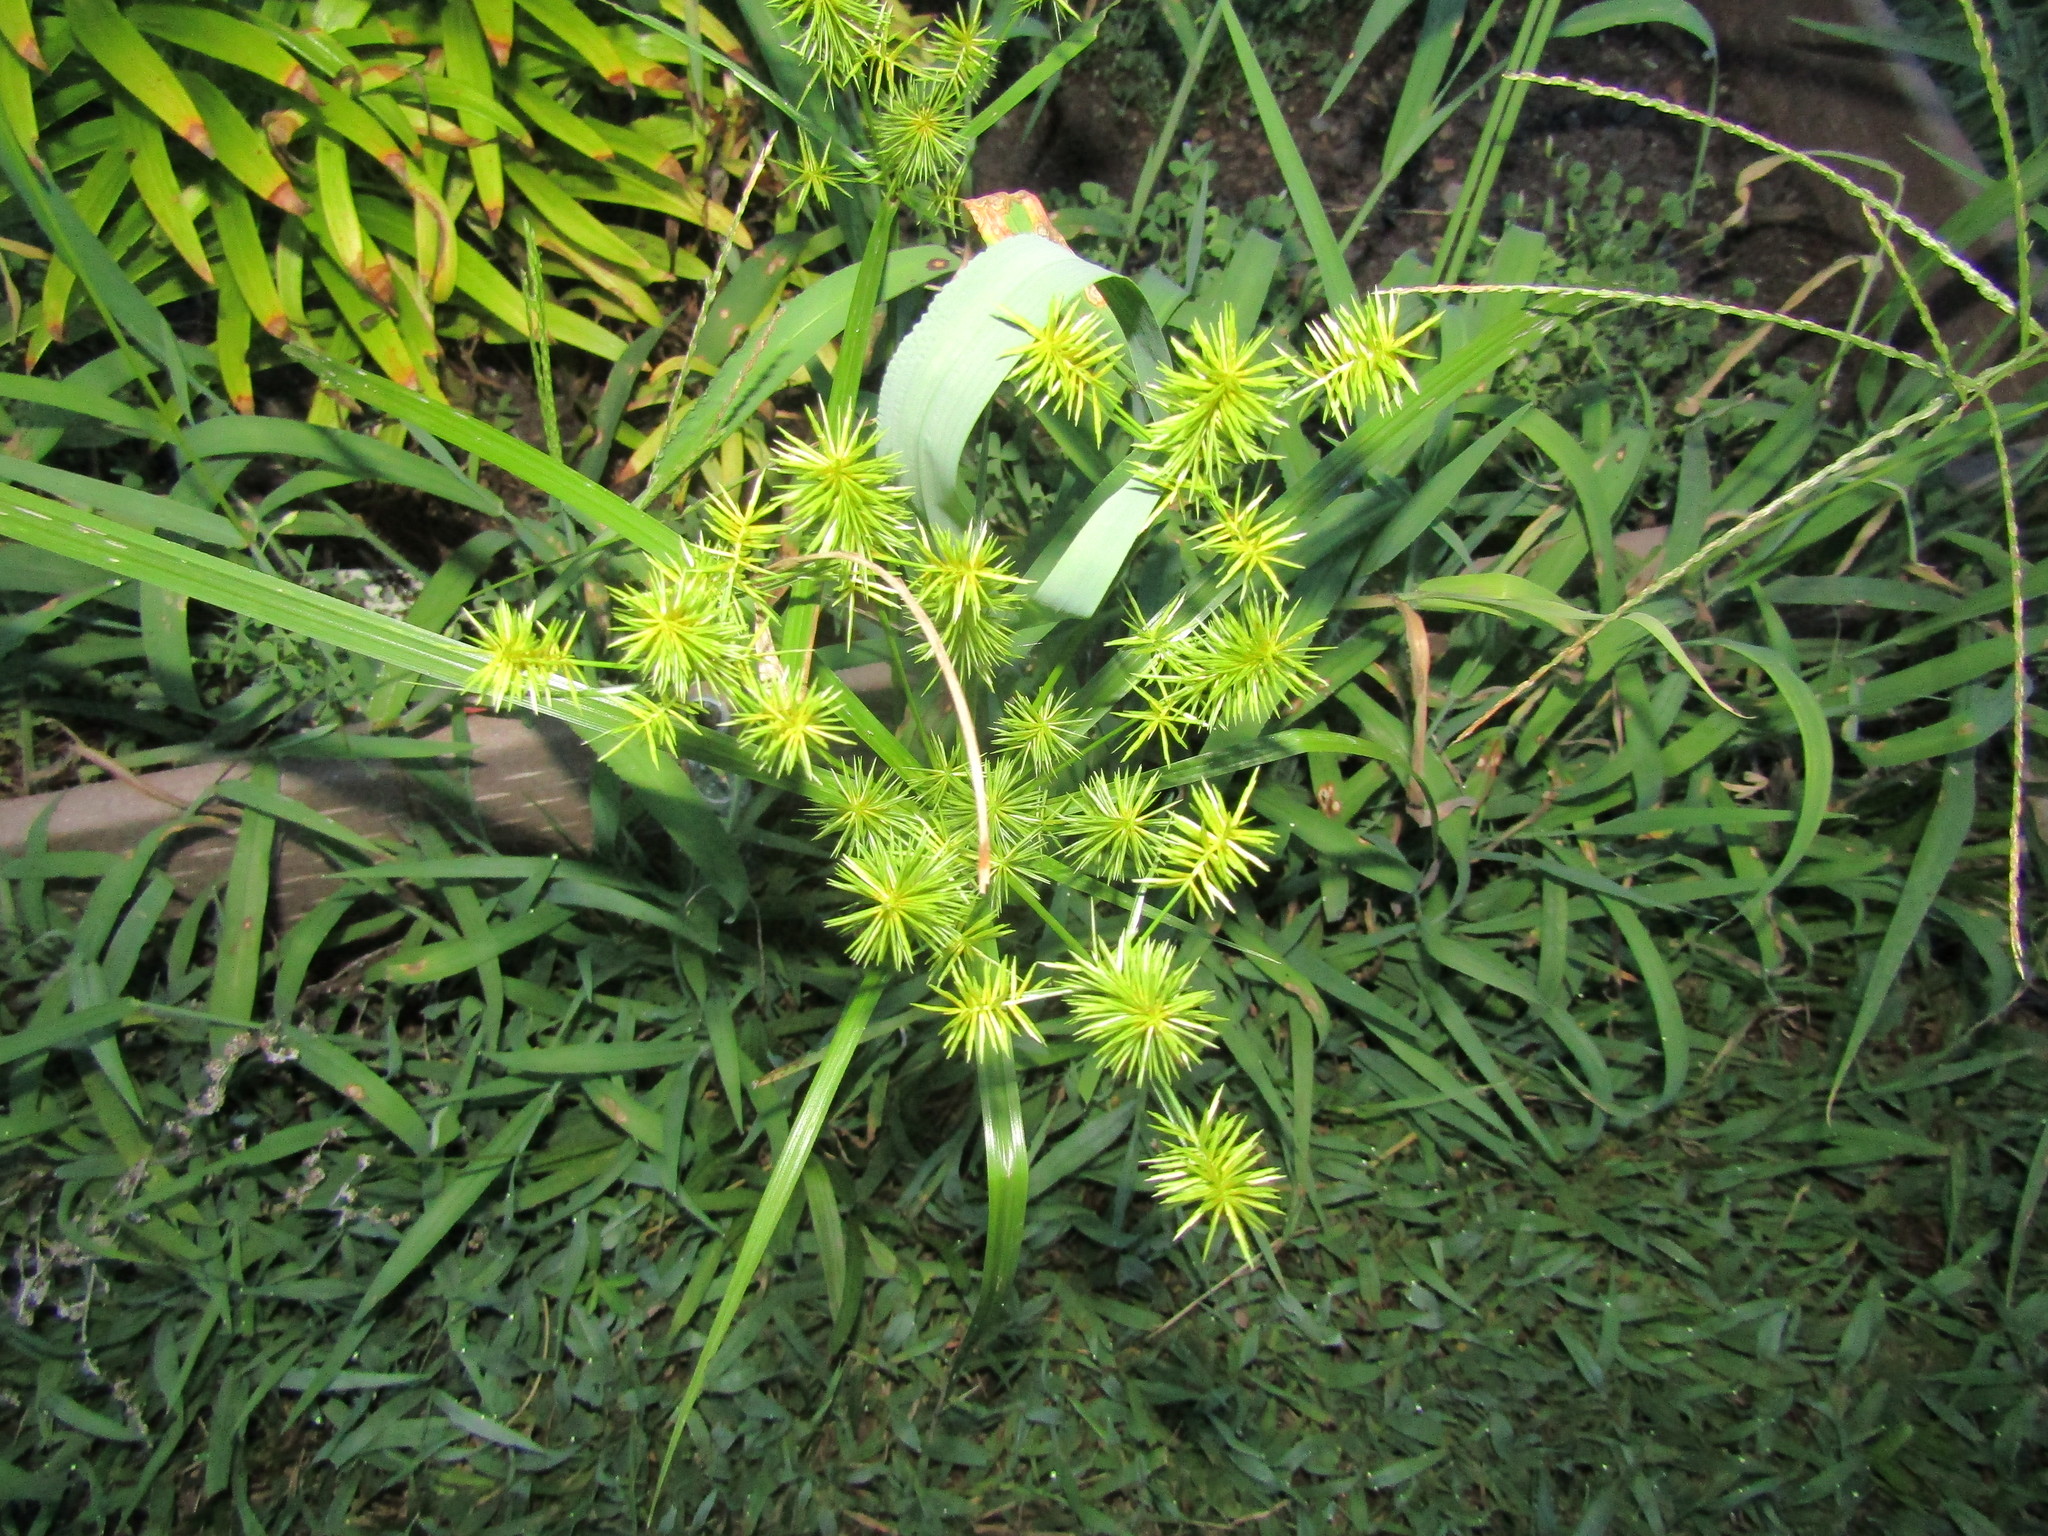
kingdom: Plantae
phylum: Tracheophyta
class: Liliopsida
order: Poales
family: Cyperaceae
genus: Cyperus
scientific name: Cyperus strigosus
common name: False nutsedge
